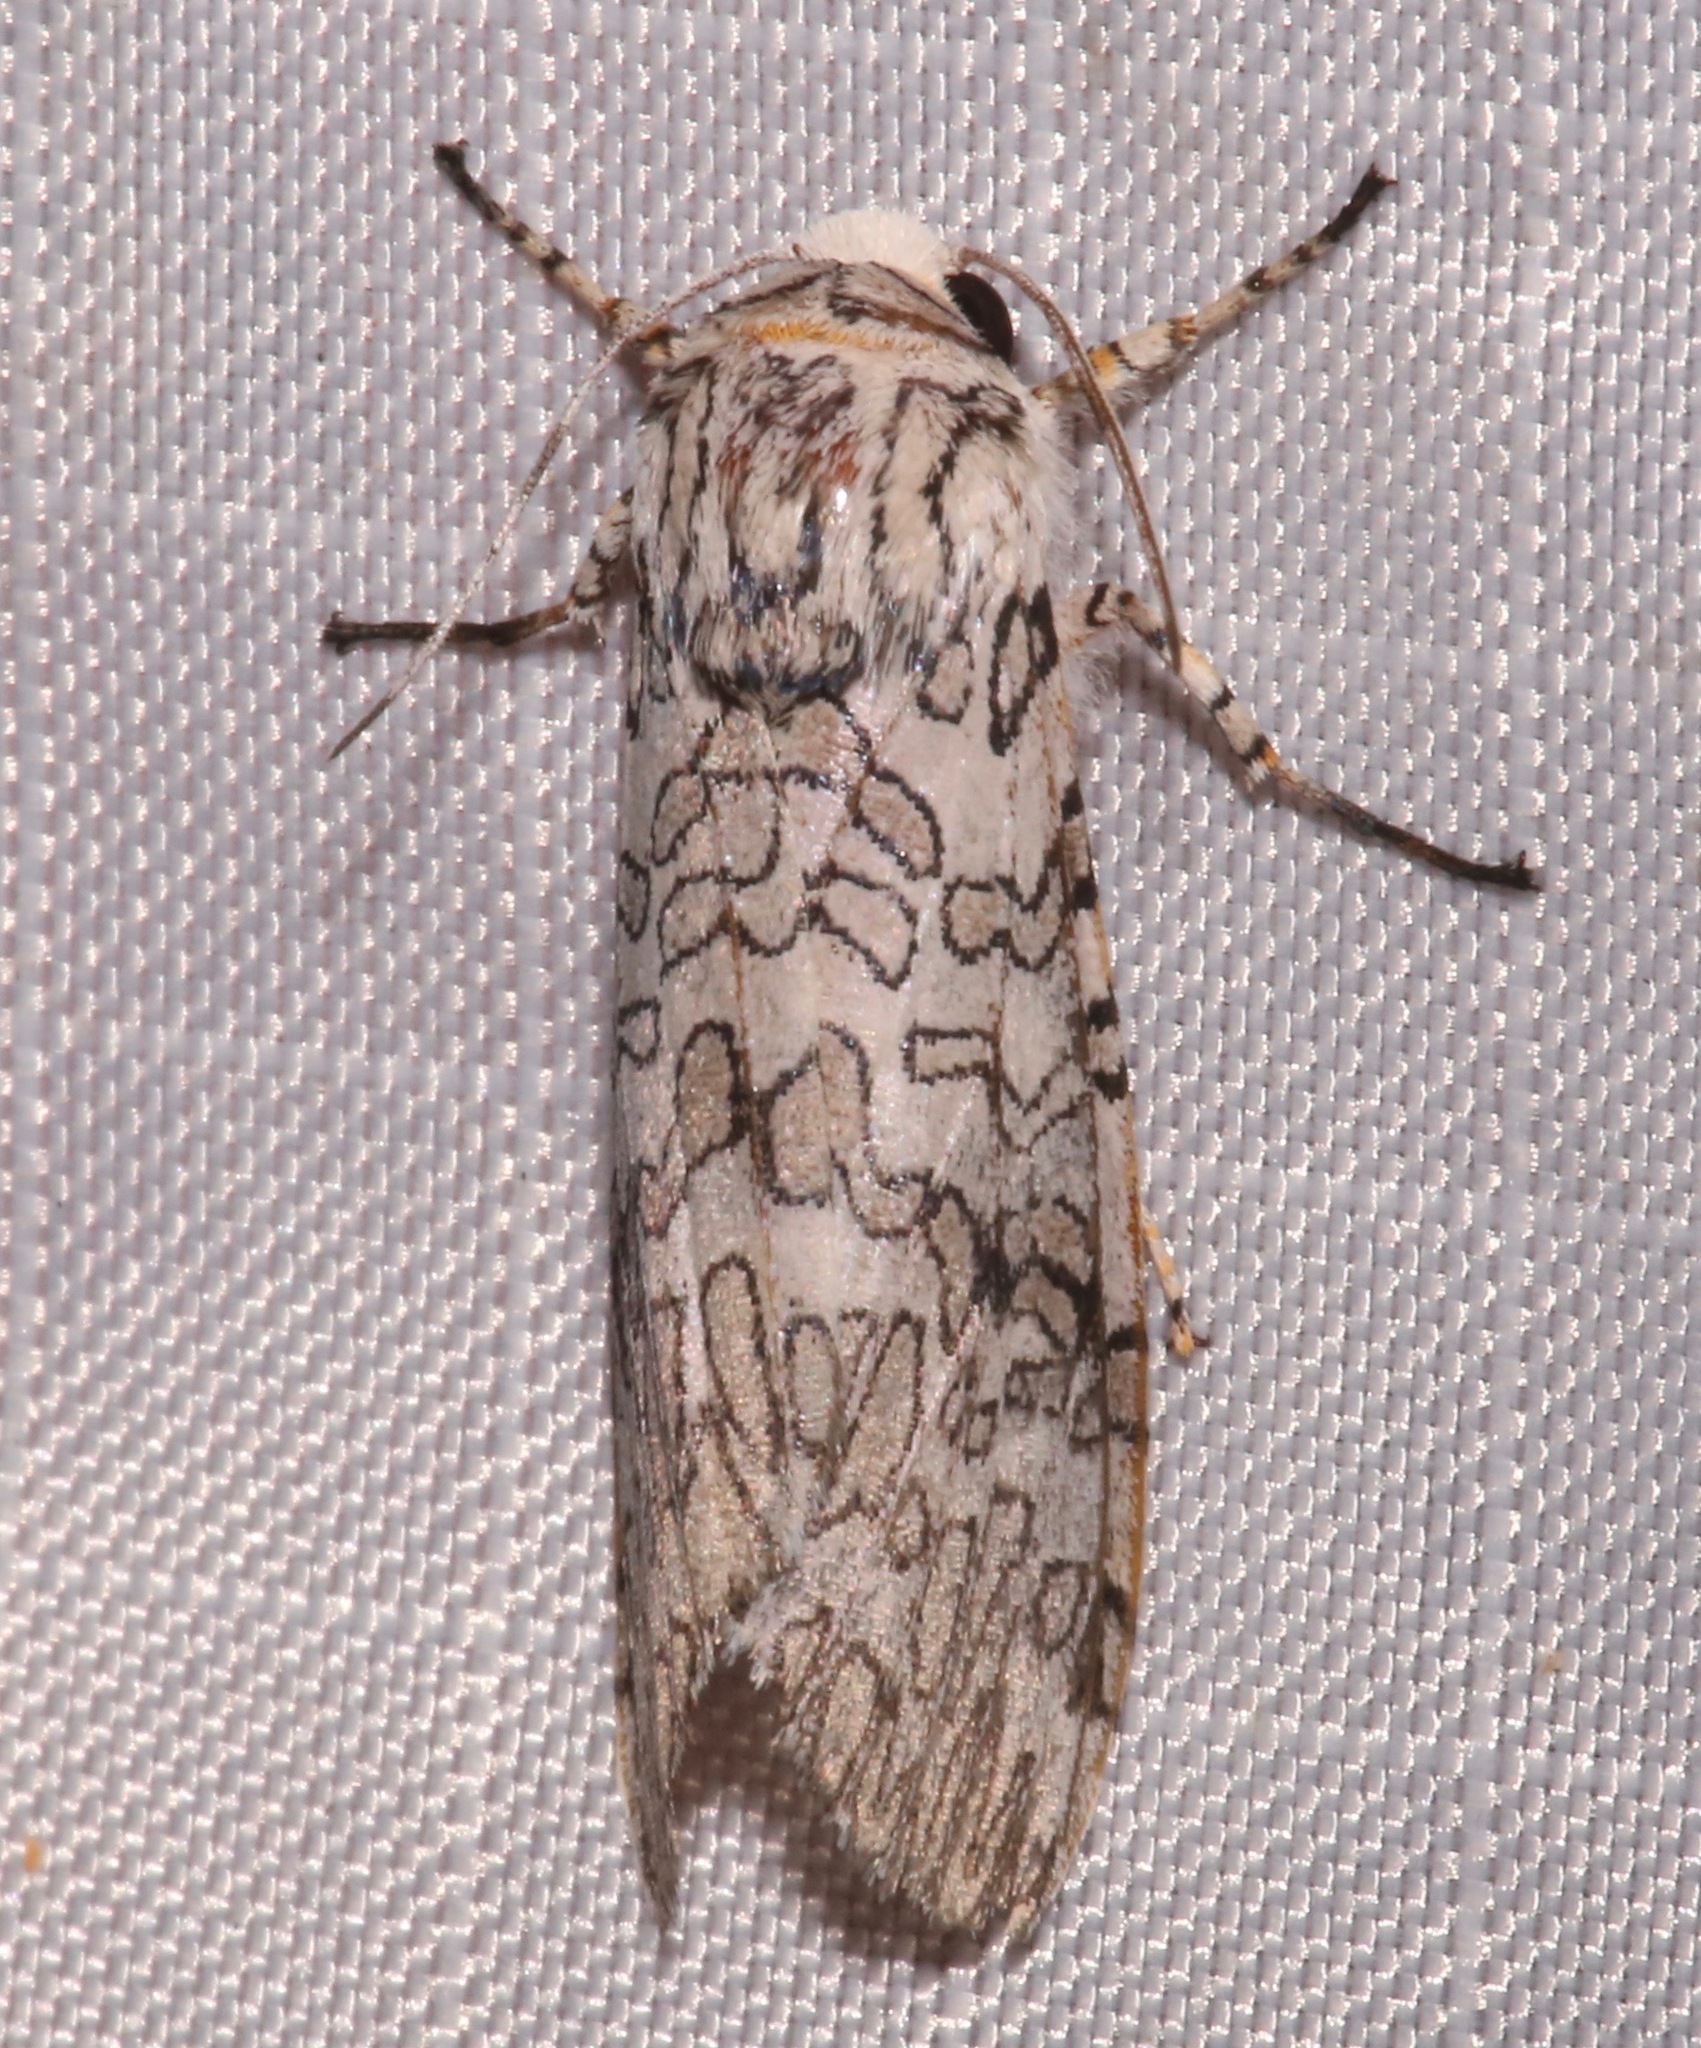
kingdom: Animalia
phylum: Arthropoda
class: Insecta
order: Lepidoptera
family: Erebidae
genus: Hypercompe
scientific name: Hypercompe suffusa
